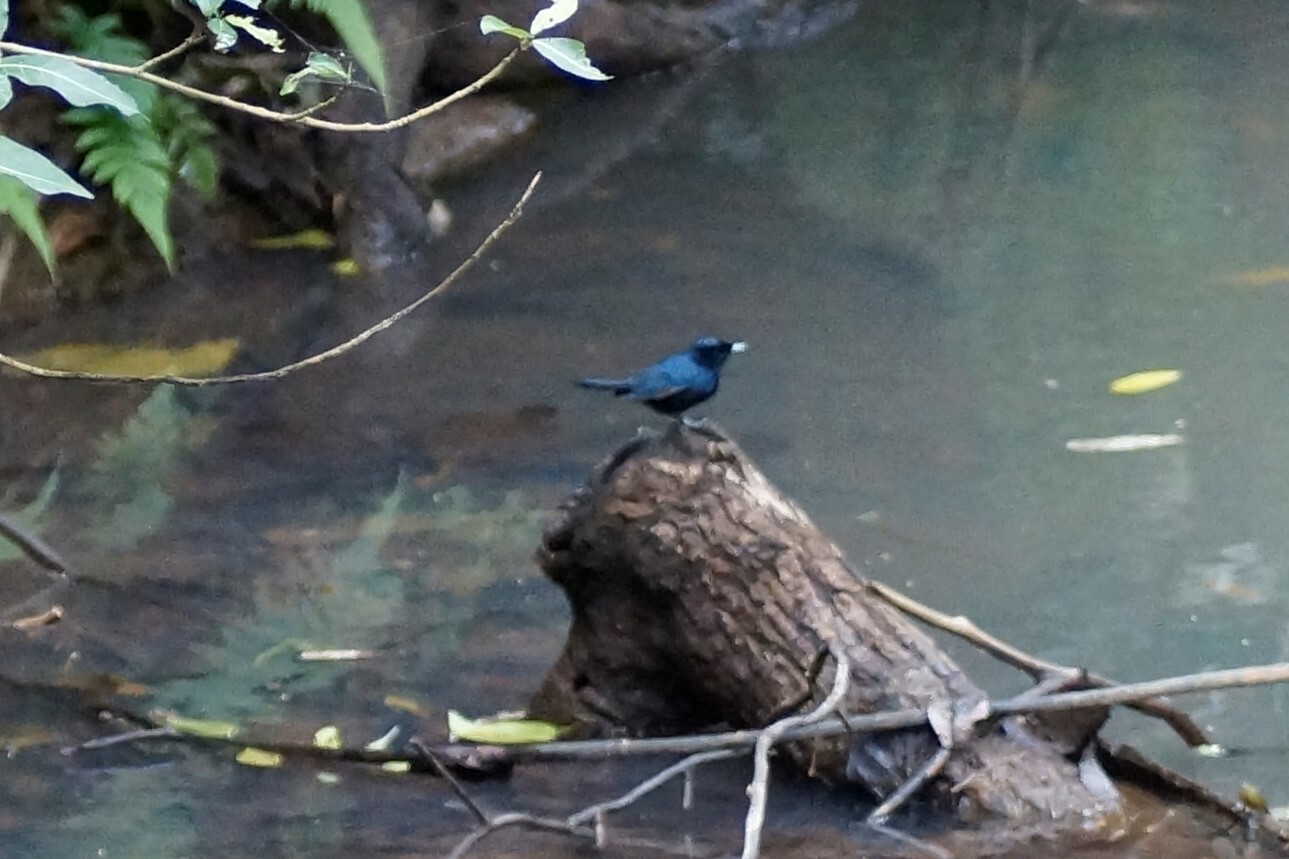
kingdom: Animalia
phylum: Chordata
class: Aves
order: Passeriformes
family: Monarchidae
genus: Myiagra
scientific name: Myiagra alecto
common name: Shining flycatcher
